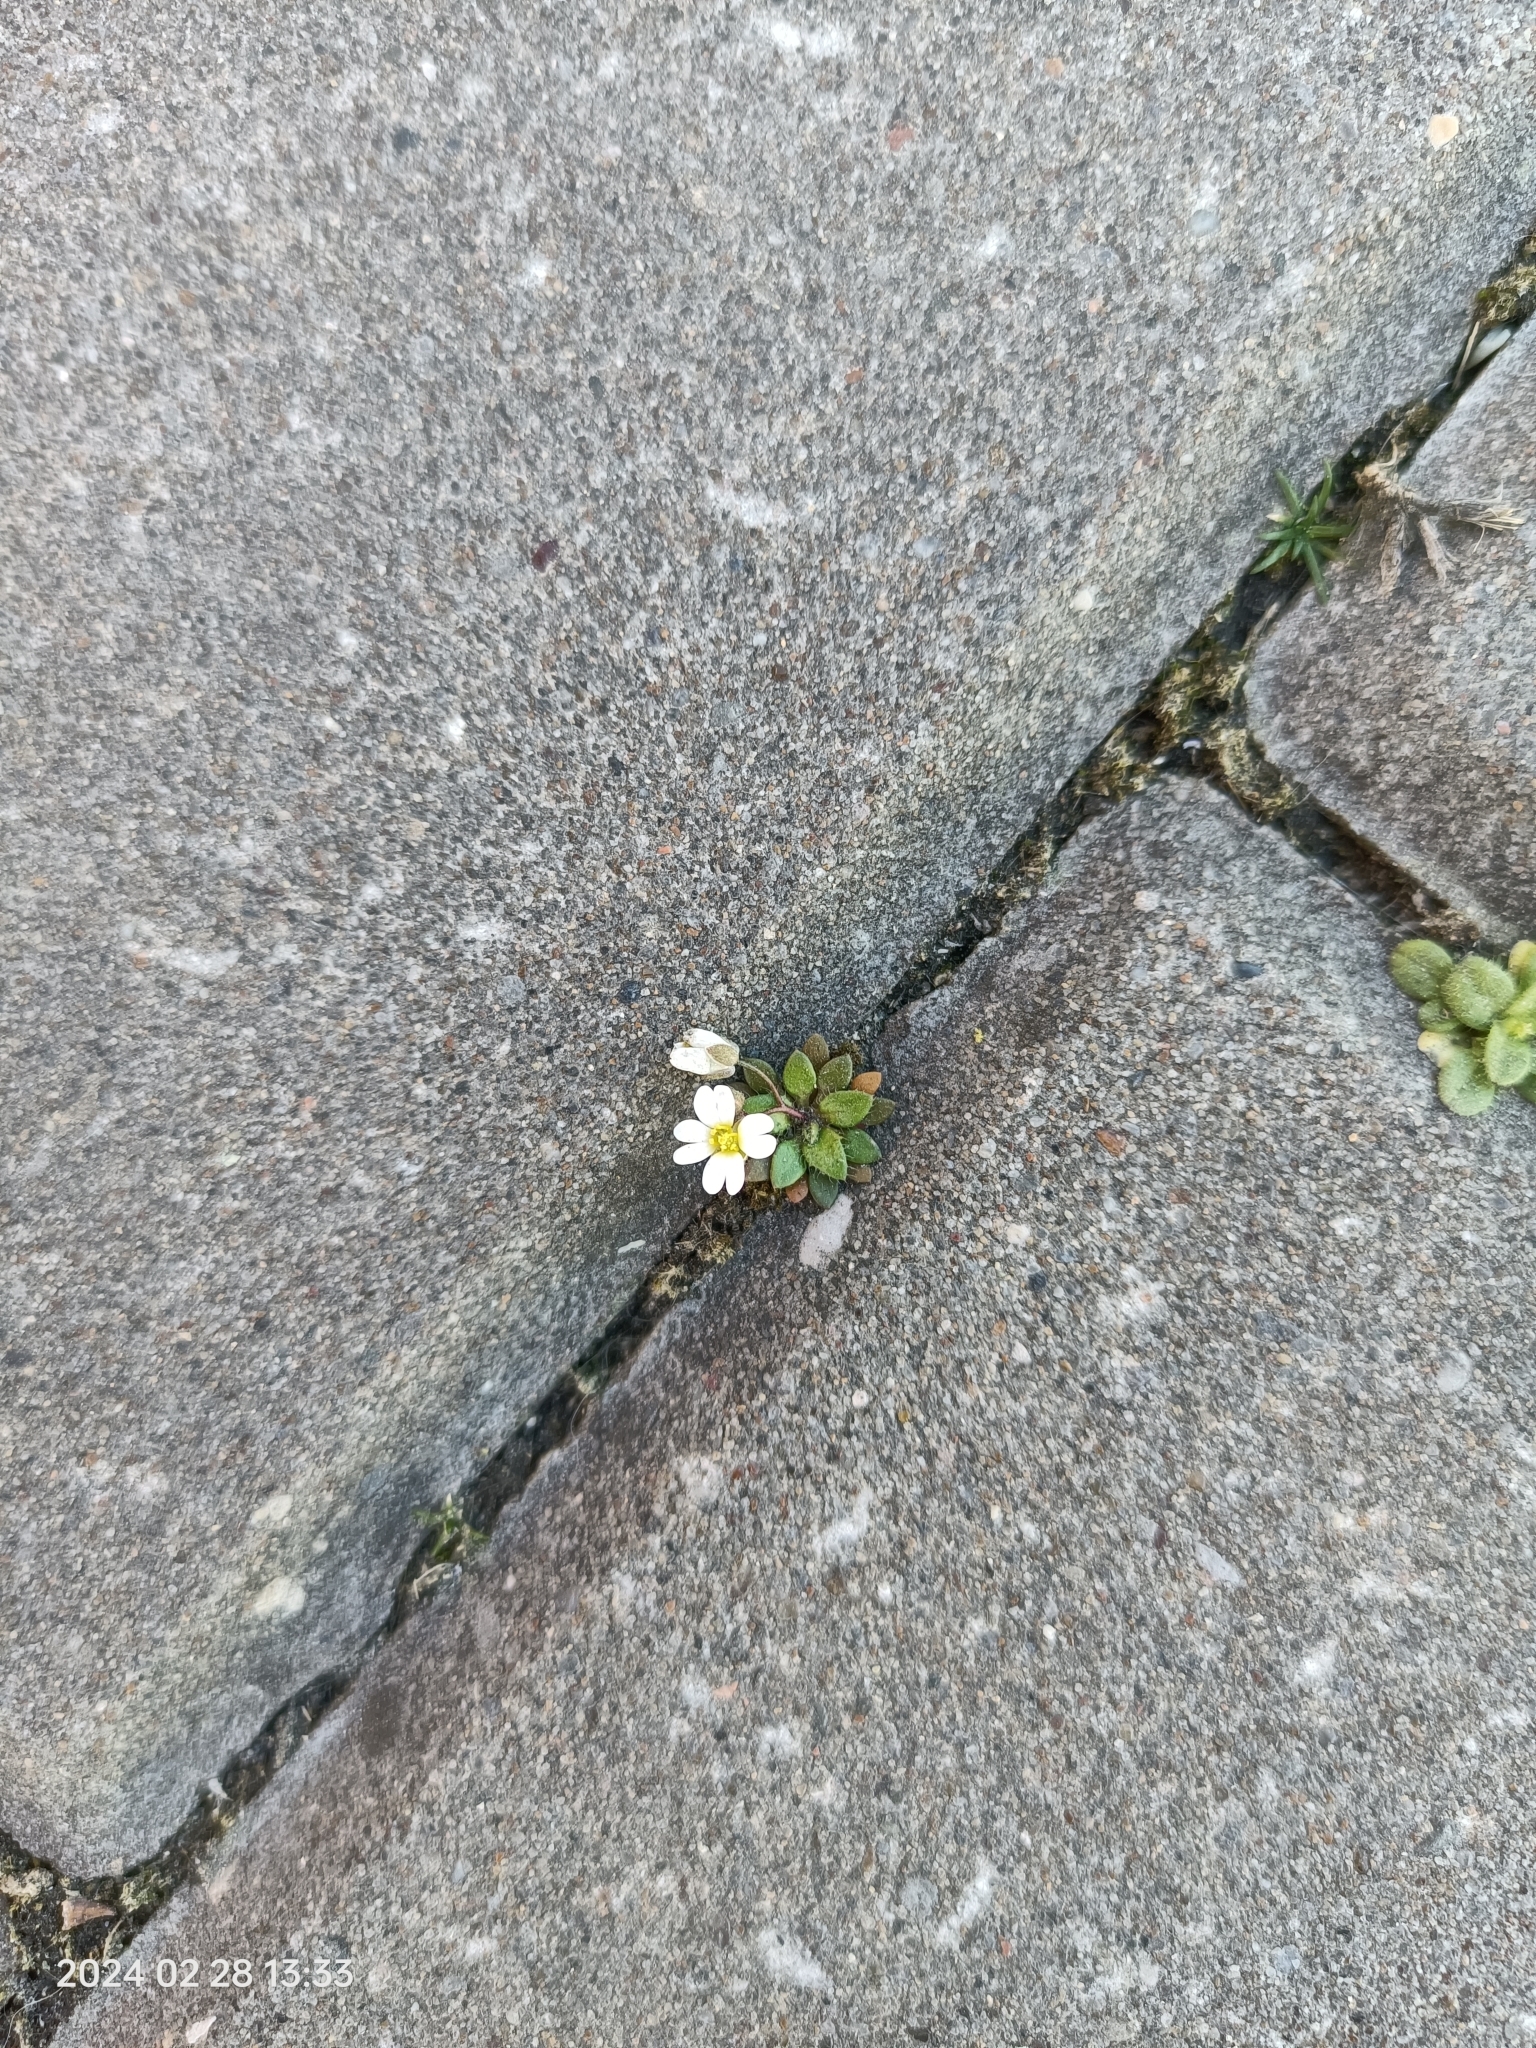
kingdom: Plantae
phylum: Tracheophyta
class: Magnoliopsida
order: Brassicales
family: Brassicaceae
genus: Draba
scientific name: Draba verna
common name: Spring draba
